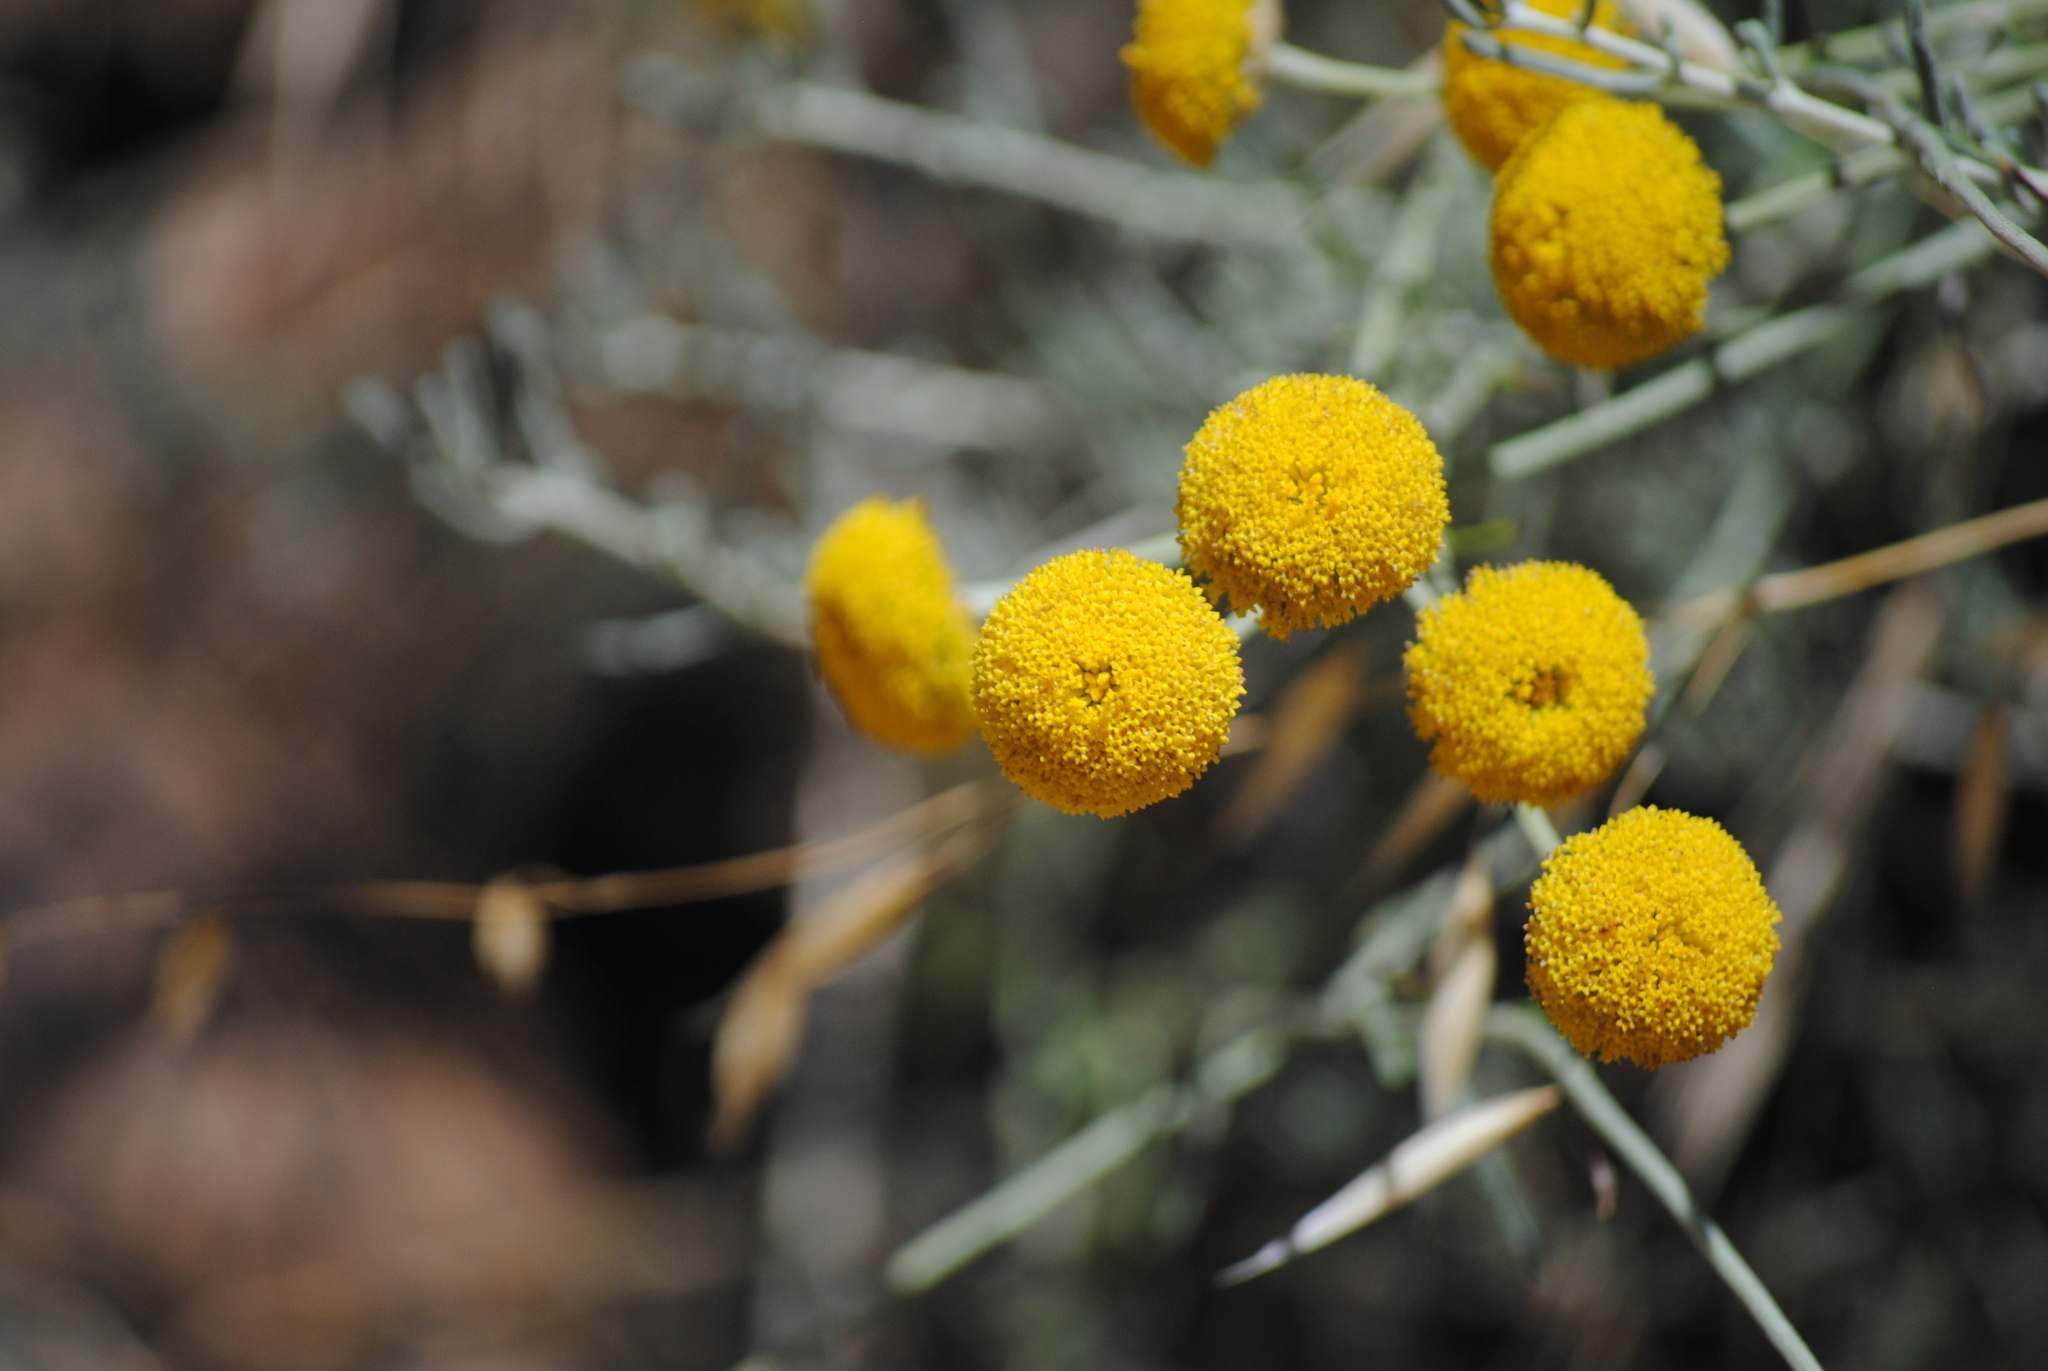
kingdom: Plantae
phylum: Tracheophyta
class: Magnoliopsida
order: Asterales
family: Asteraceae
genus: Santolina
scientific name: Santolina semidentata
